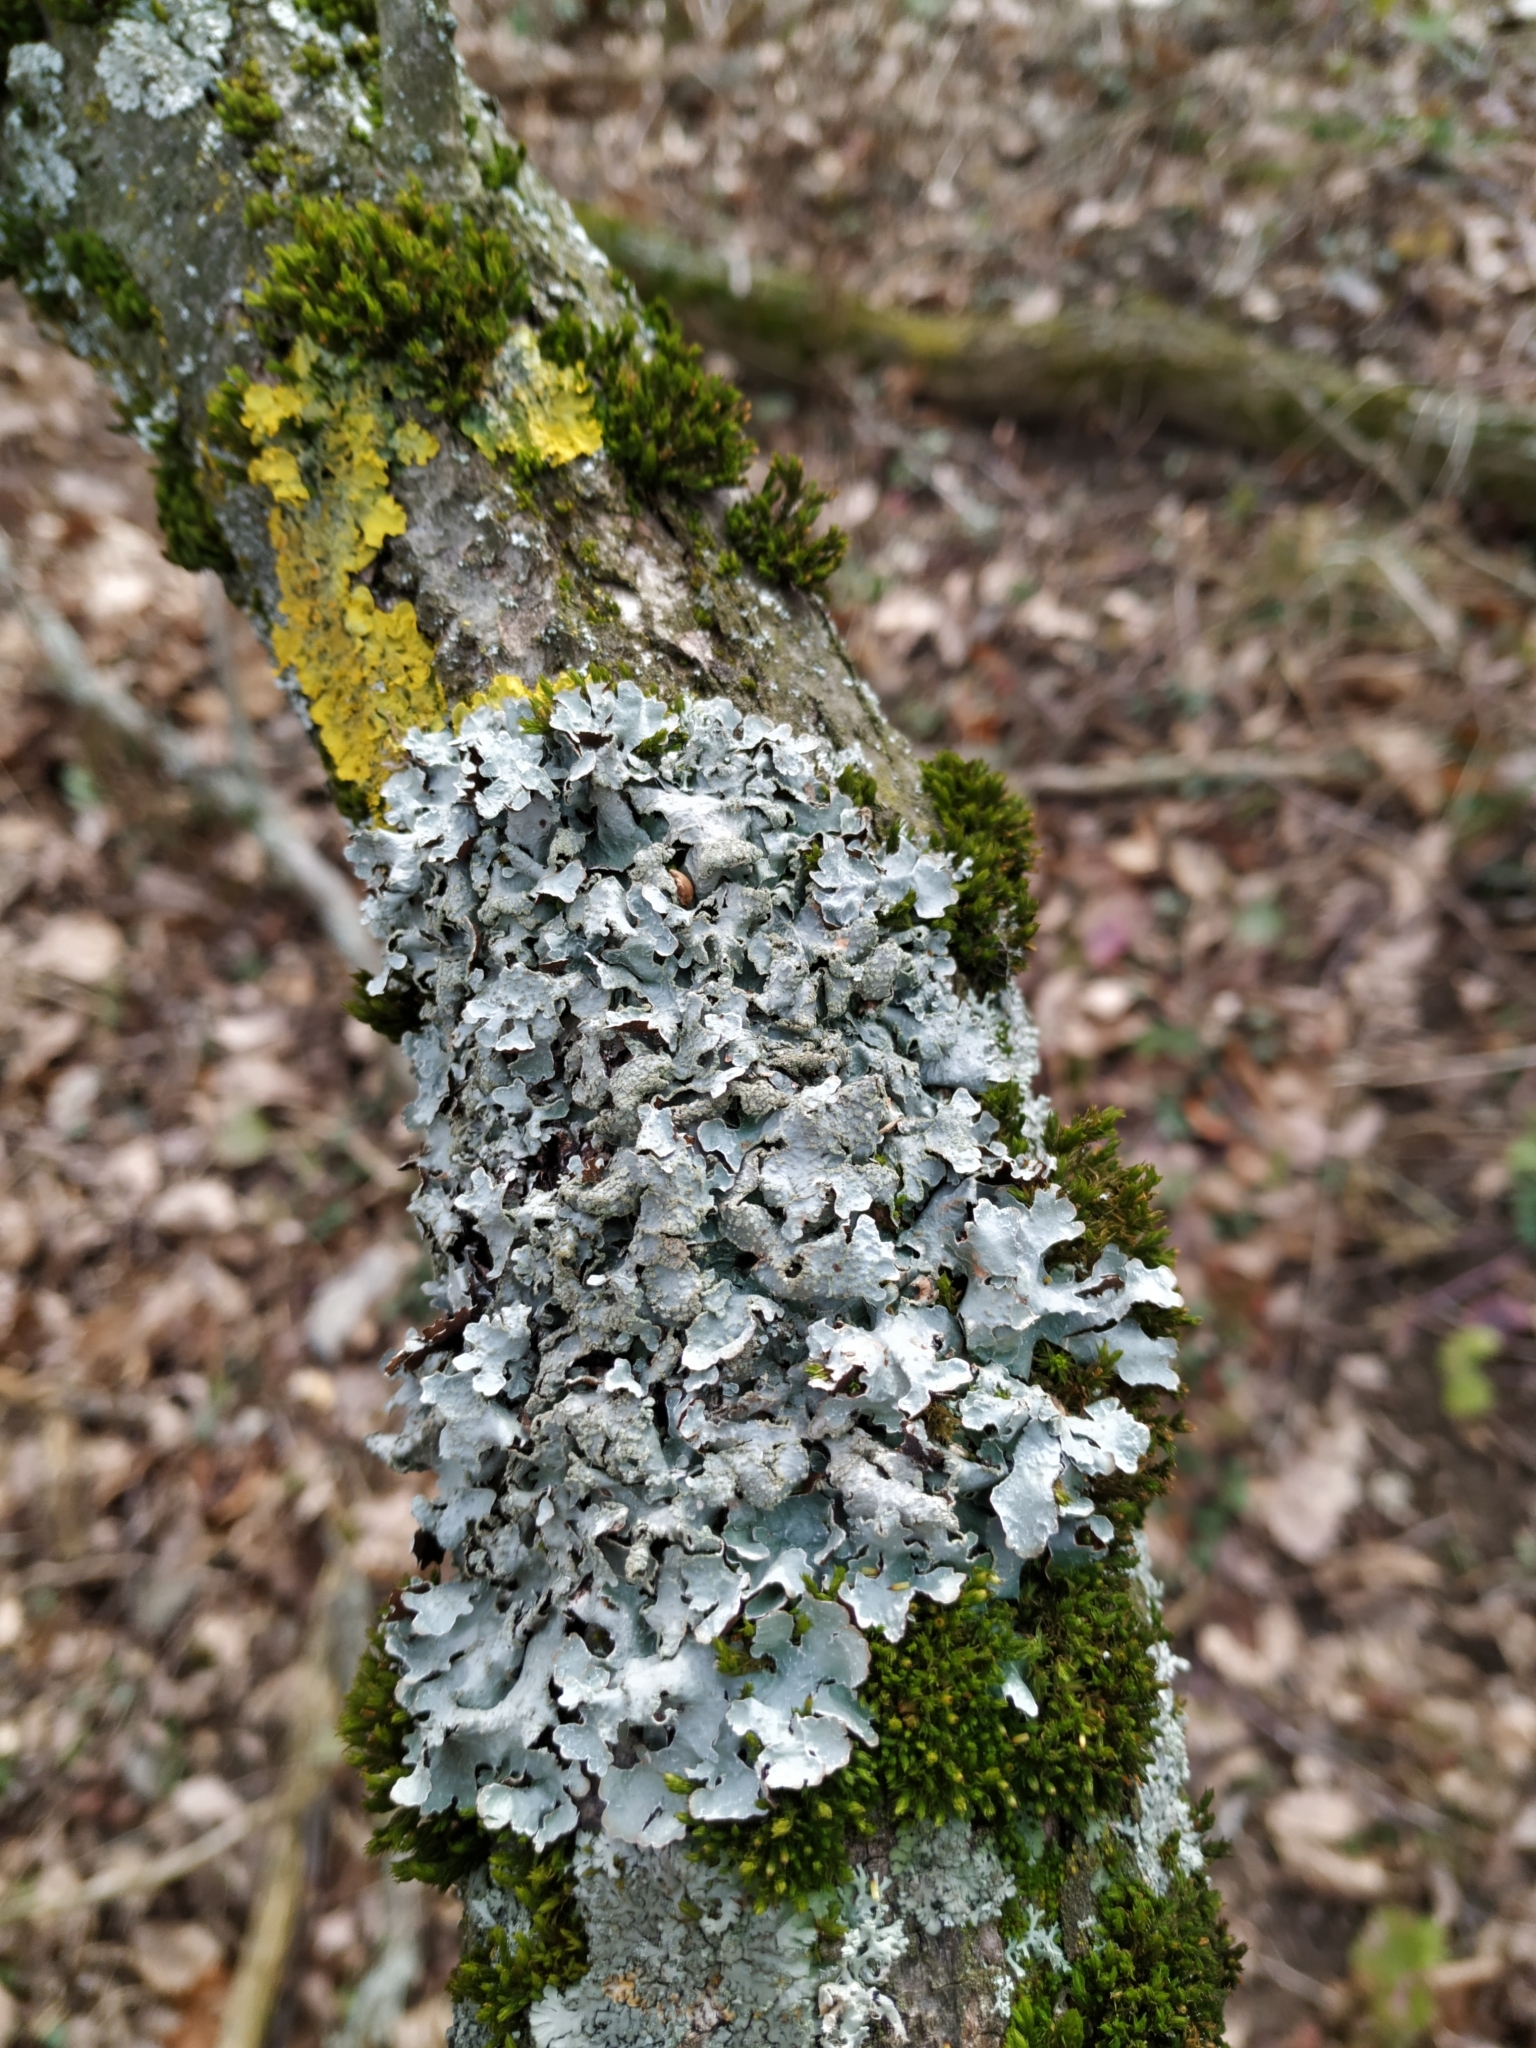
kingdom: Fungi
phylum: Ascomycota
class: Lecanoromycetes
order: Lecanorales
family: Parmeliaceae
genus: Parmelia
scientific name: Parmelia sulcata
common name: Netted shield lichen
